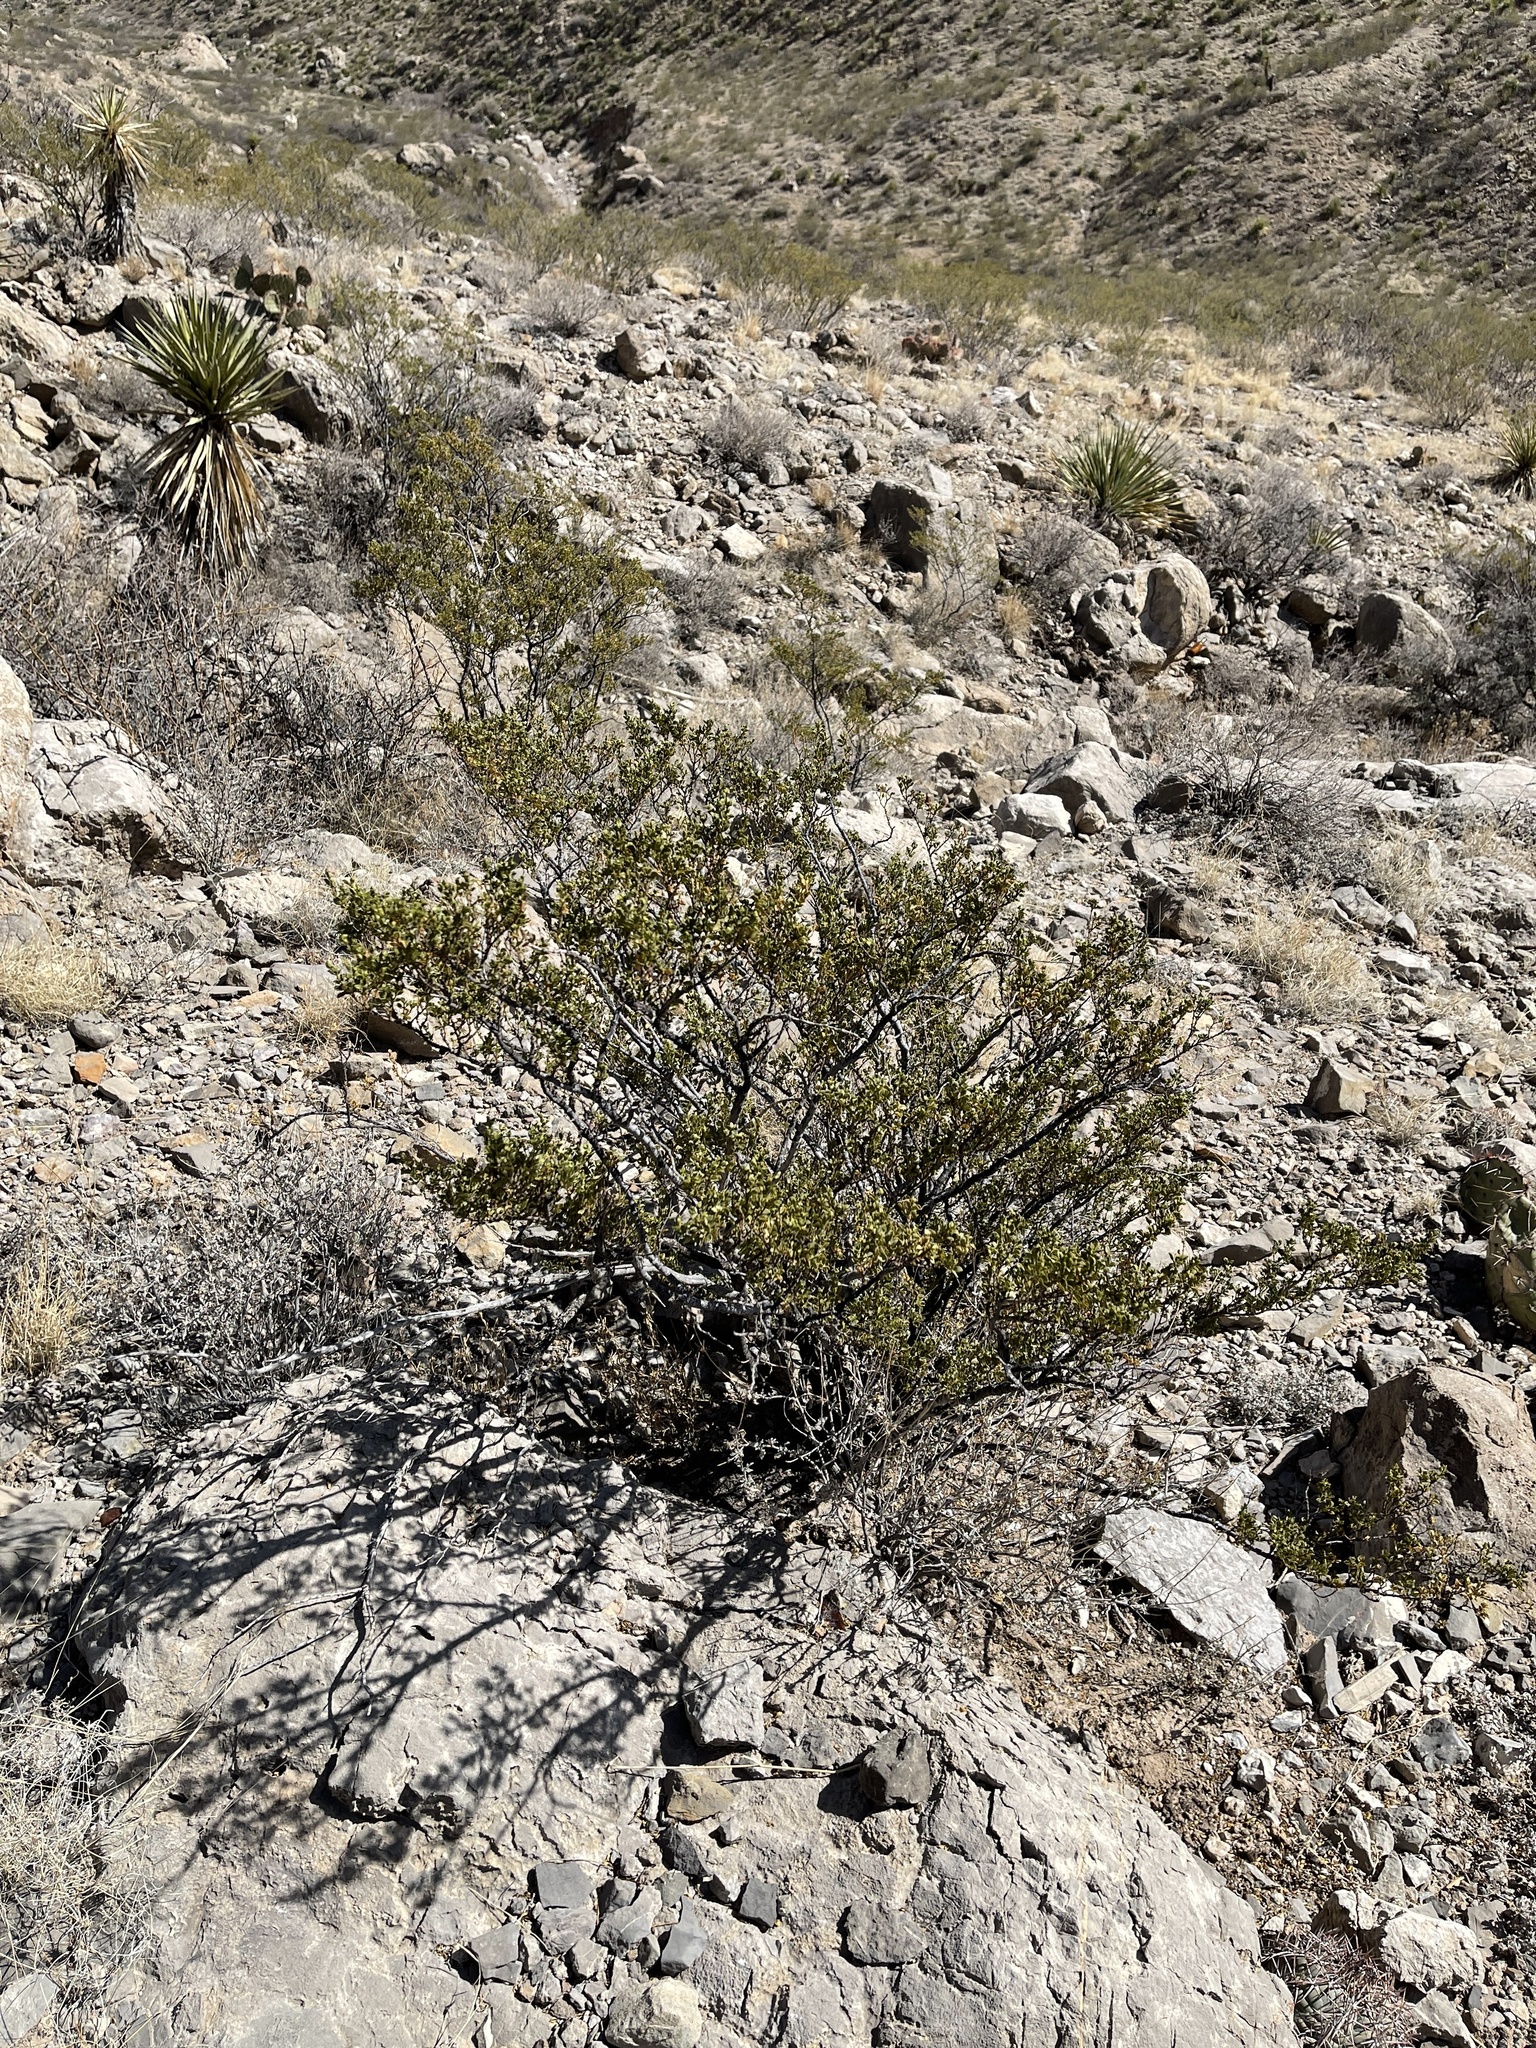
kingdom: Plantae
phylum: Tracheophyta
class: Magnoliopsida
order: Zygophyllales
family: Zygophyllaceae
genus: Larrea
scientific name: Larrea tridentata
